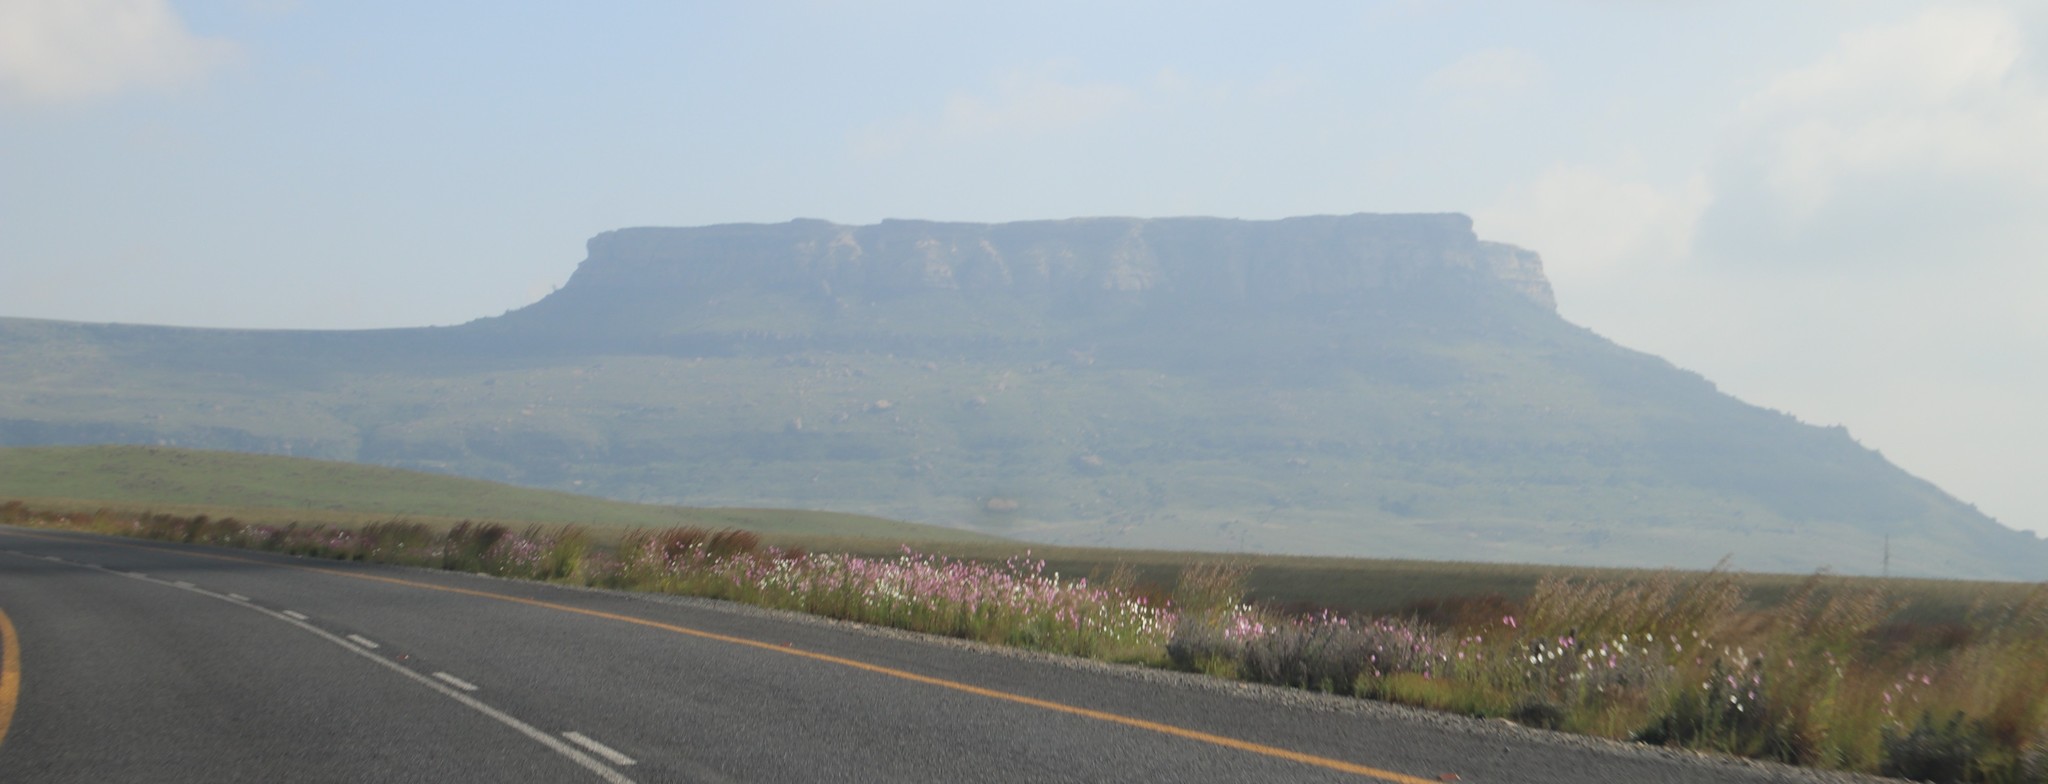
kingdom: Plantae
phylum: Tracheophyta
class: Magnoliopsida
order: Asterales
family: Asteraceae
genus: Cosmos
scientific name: Cosmos bipinnatus
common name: Garden cosmos
